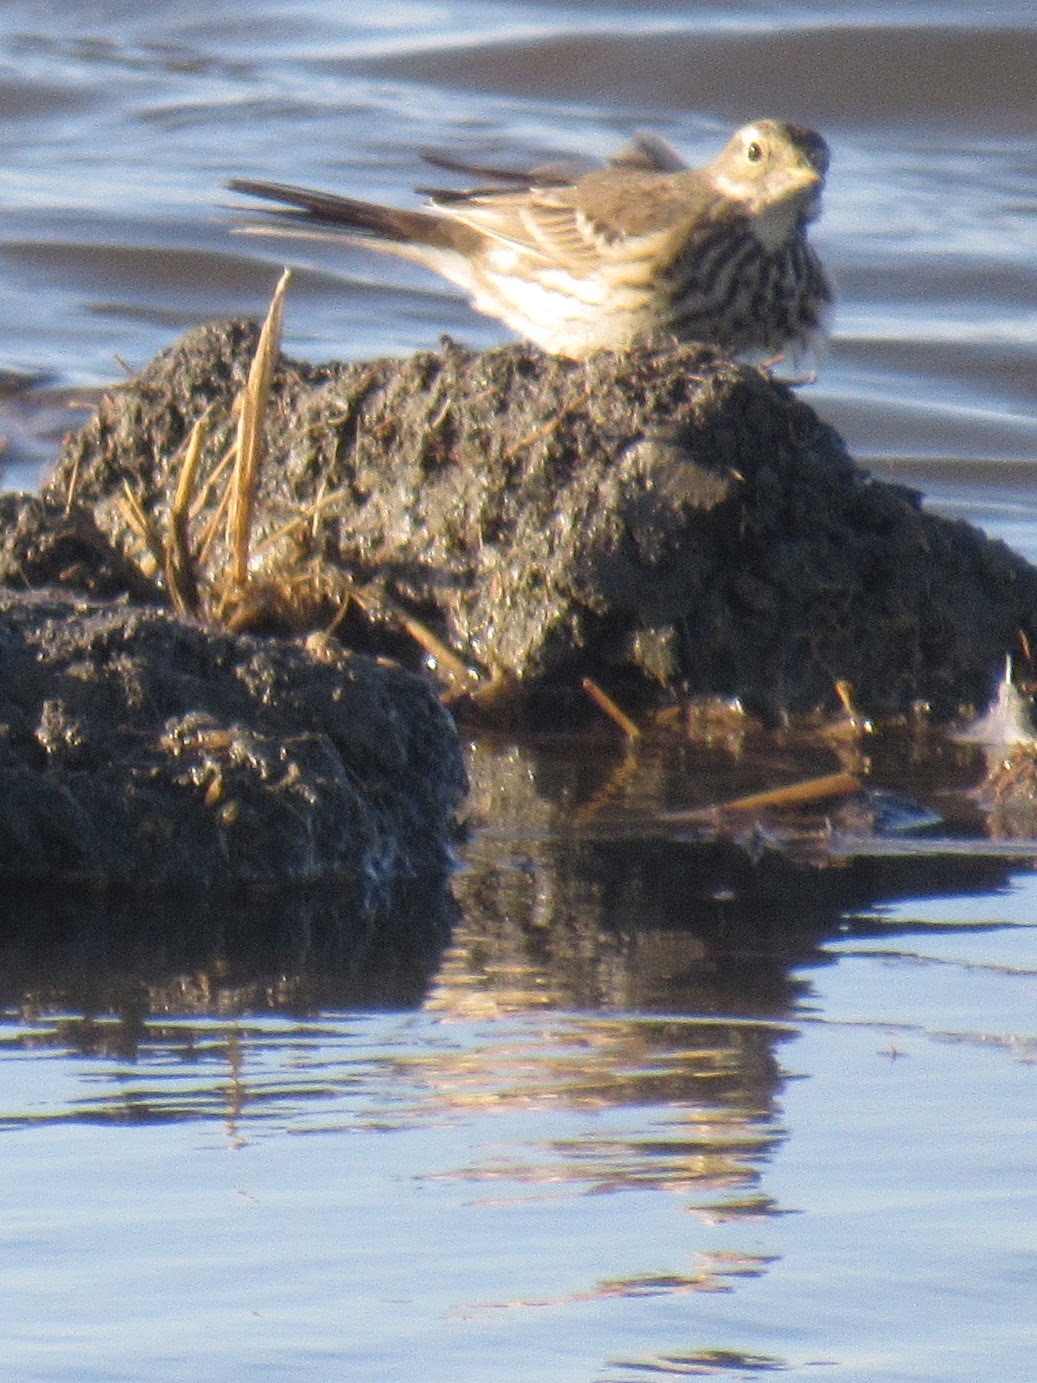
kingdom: Animalia
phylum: Chordata
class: Aves
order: Passeriformes
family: Motacillidae
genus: Anthus
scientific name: Anthus rubescens
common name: Buff-bellied pipit
